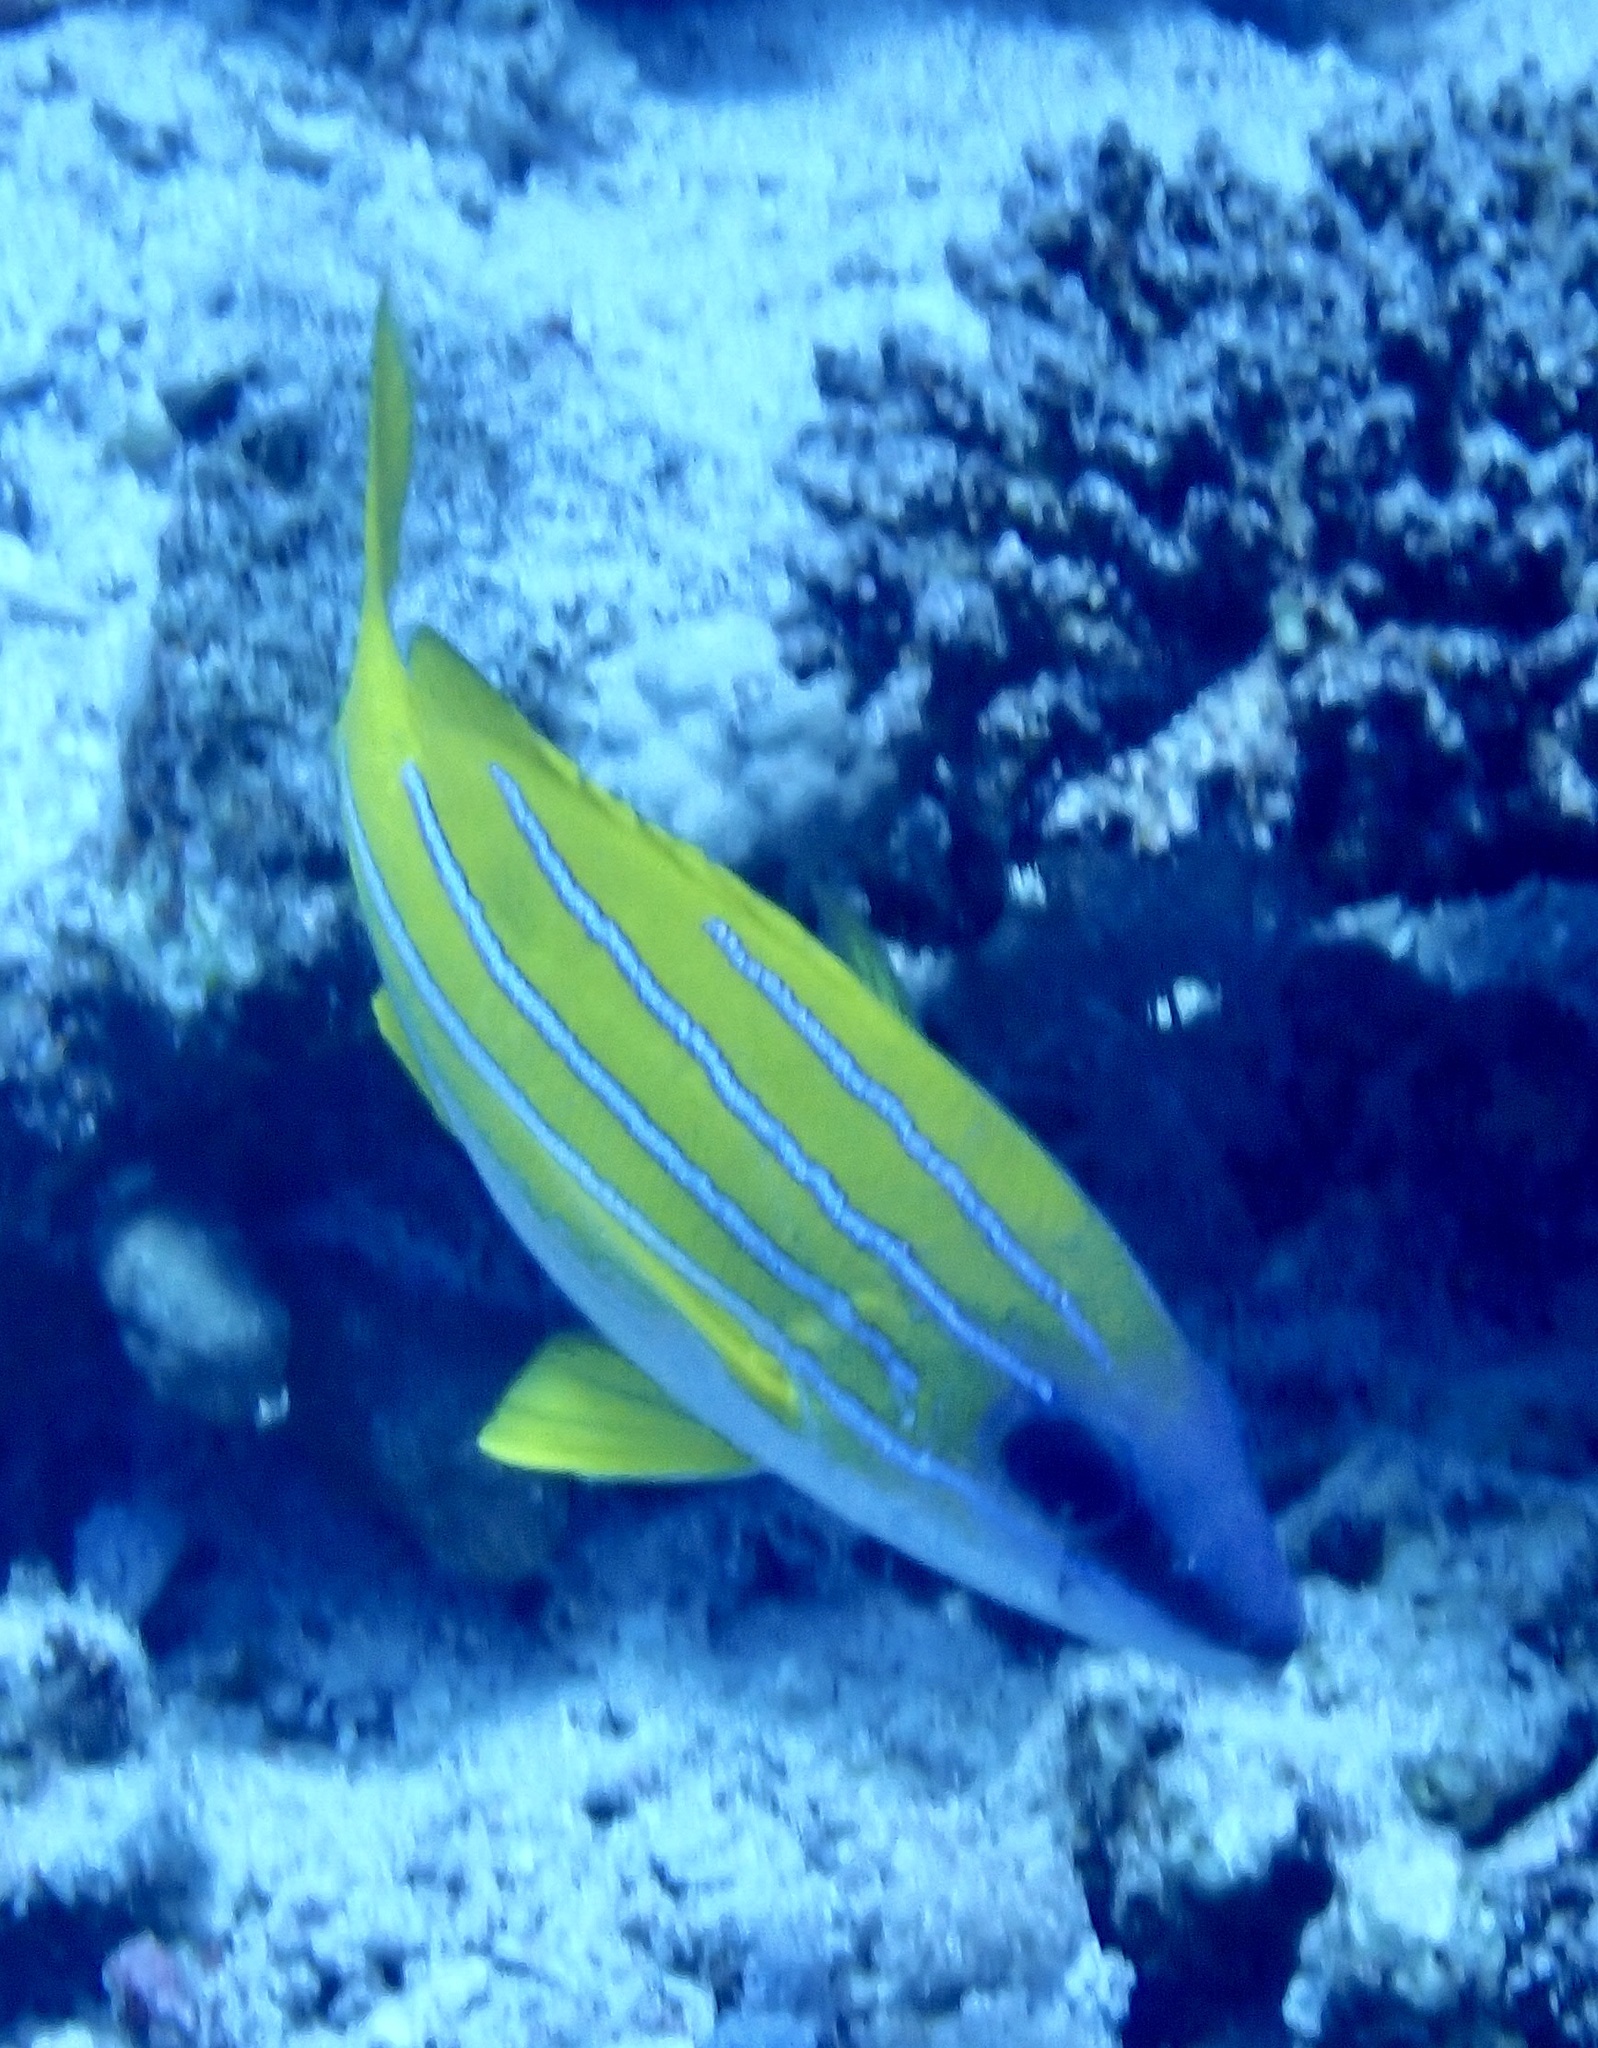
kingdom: Animalia
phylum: Chordata
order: Perciformes
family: Lutjanidae
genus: Lutjanus
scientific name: Lutjanus kasmira
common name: Common bluestripe snapper
